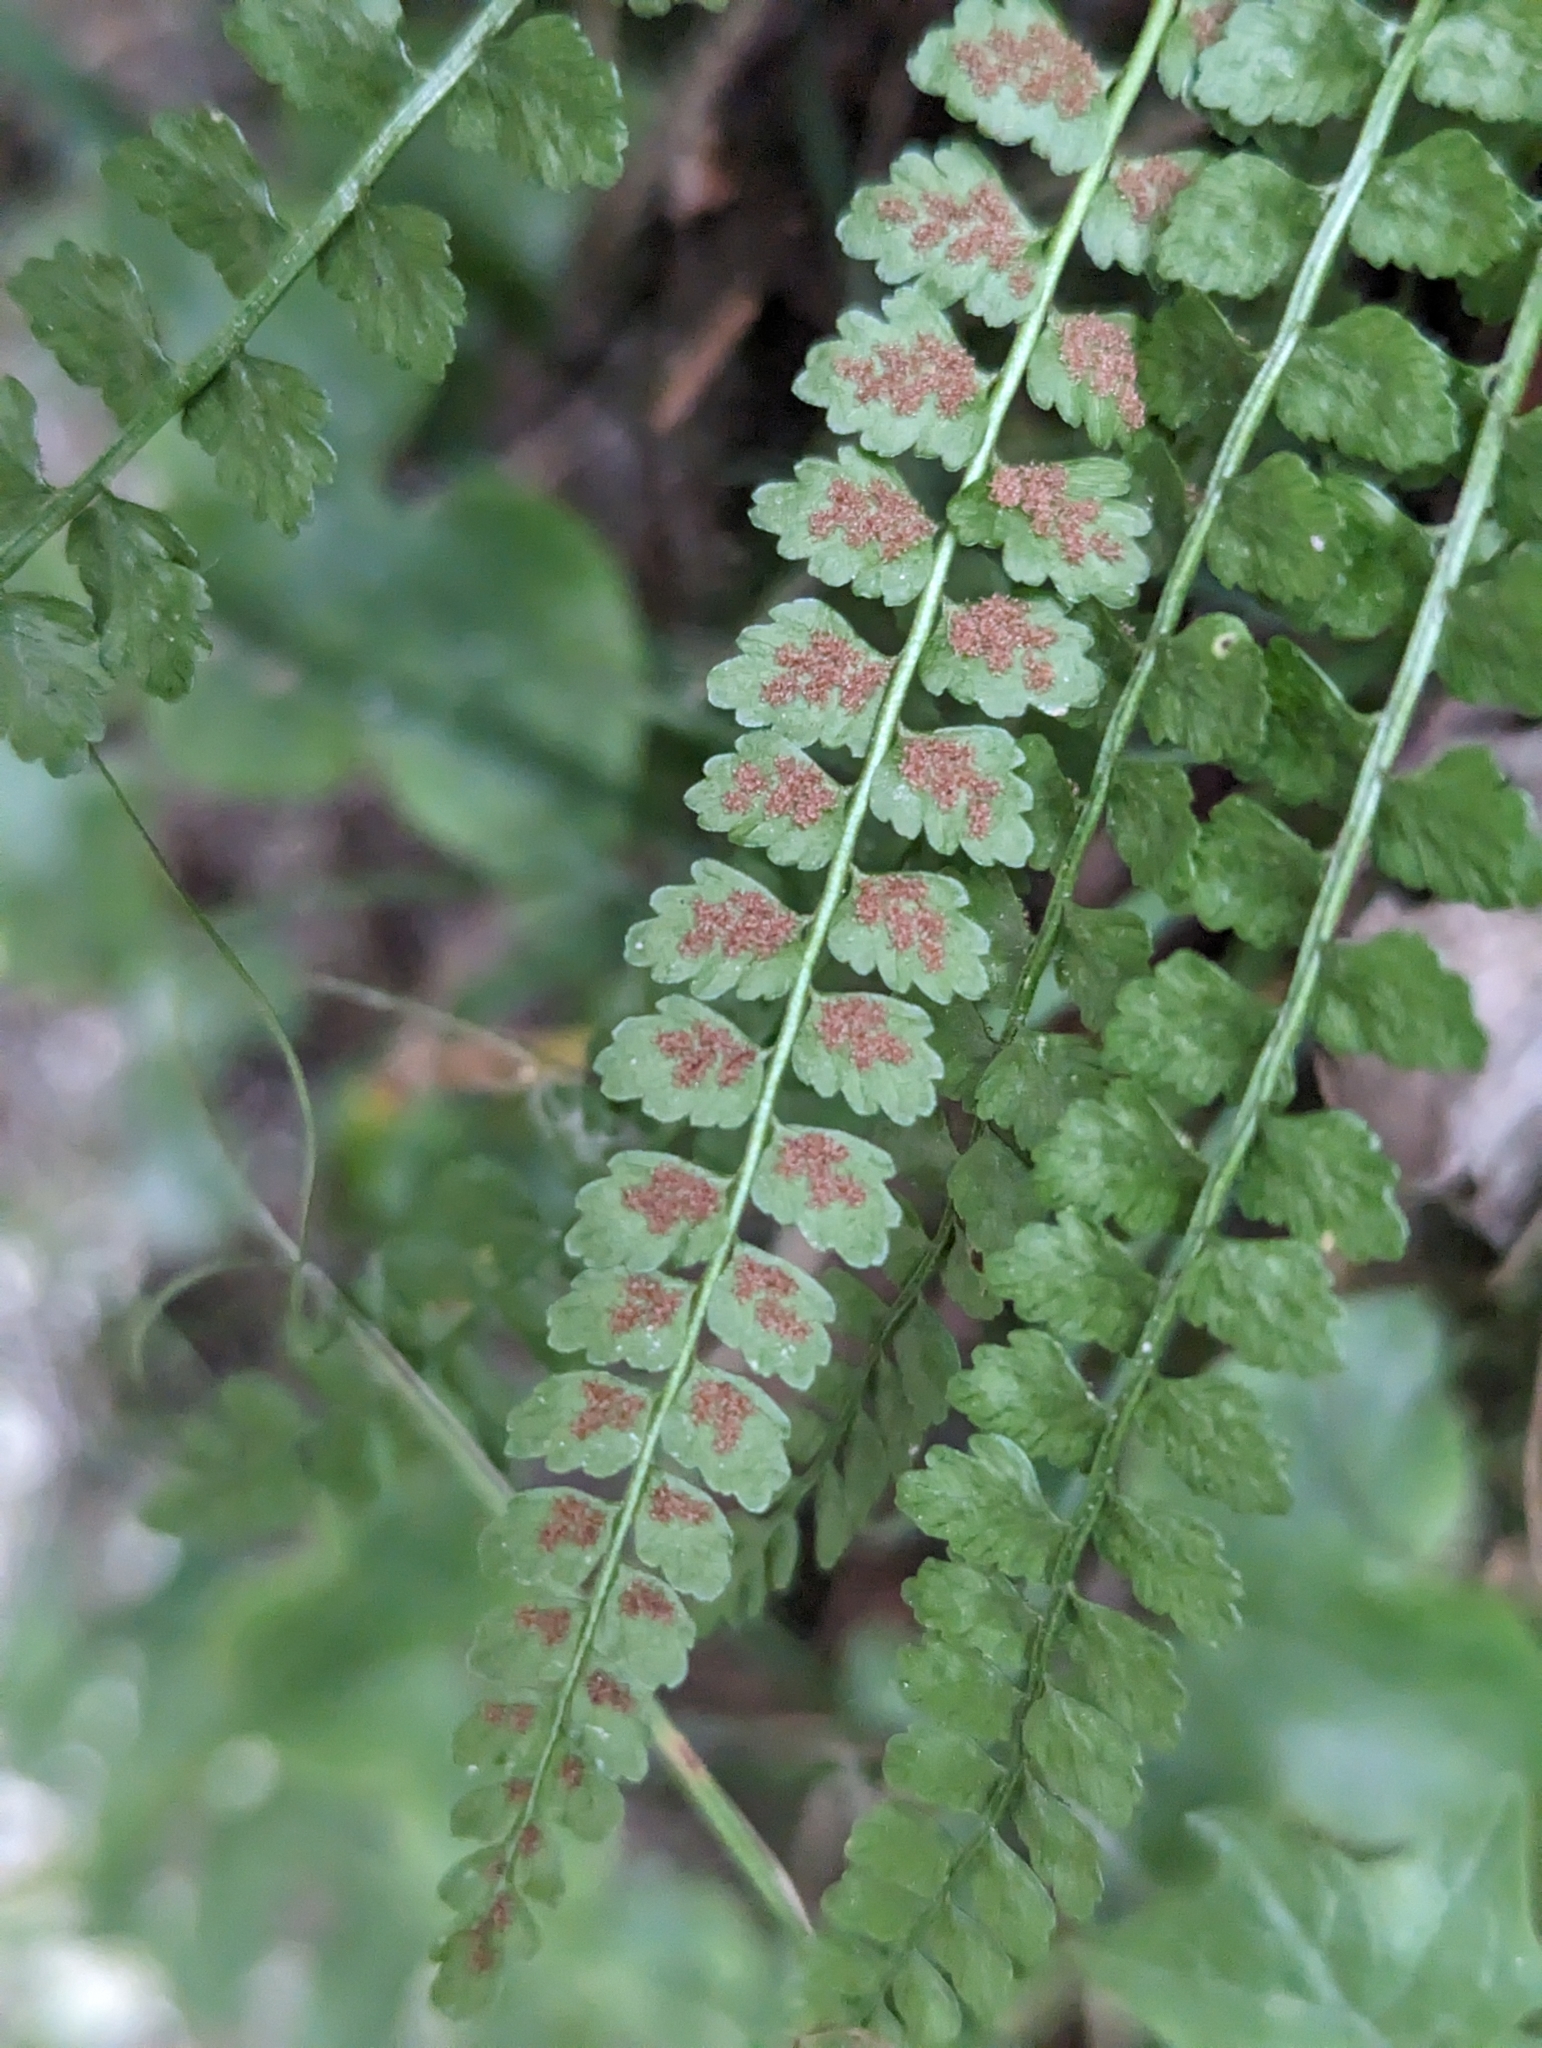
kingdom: Plantae
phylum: Tracheophyta
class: Polypodiopsida
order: Polypodiales
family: Aspleniaceae
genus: Asplenium
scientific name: Asplenium viride
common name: Green spleenwort
